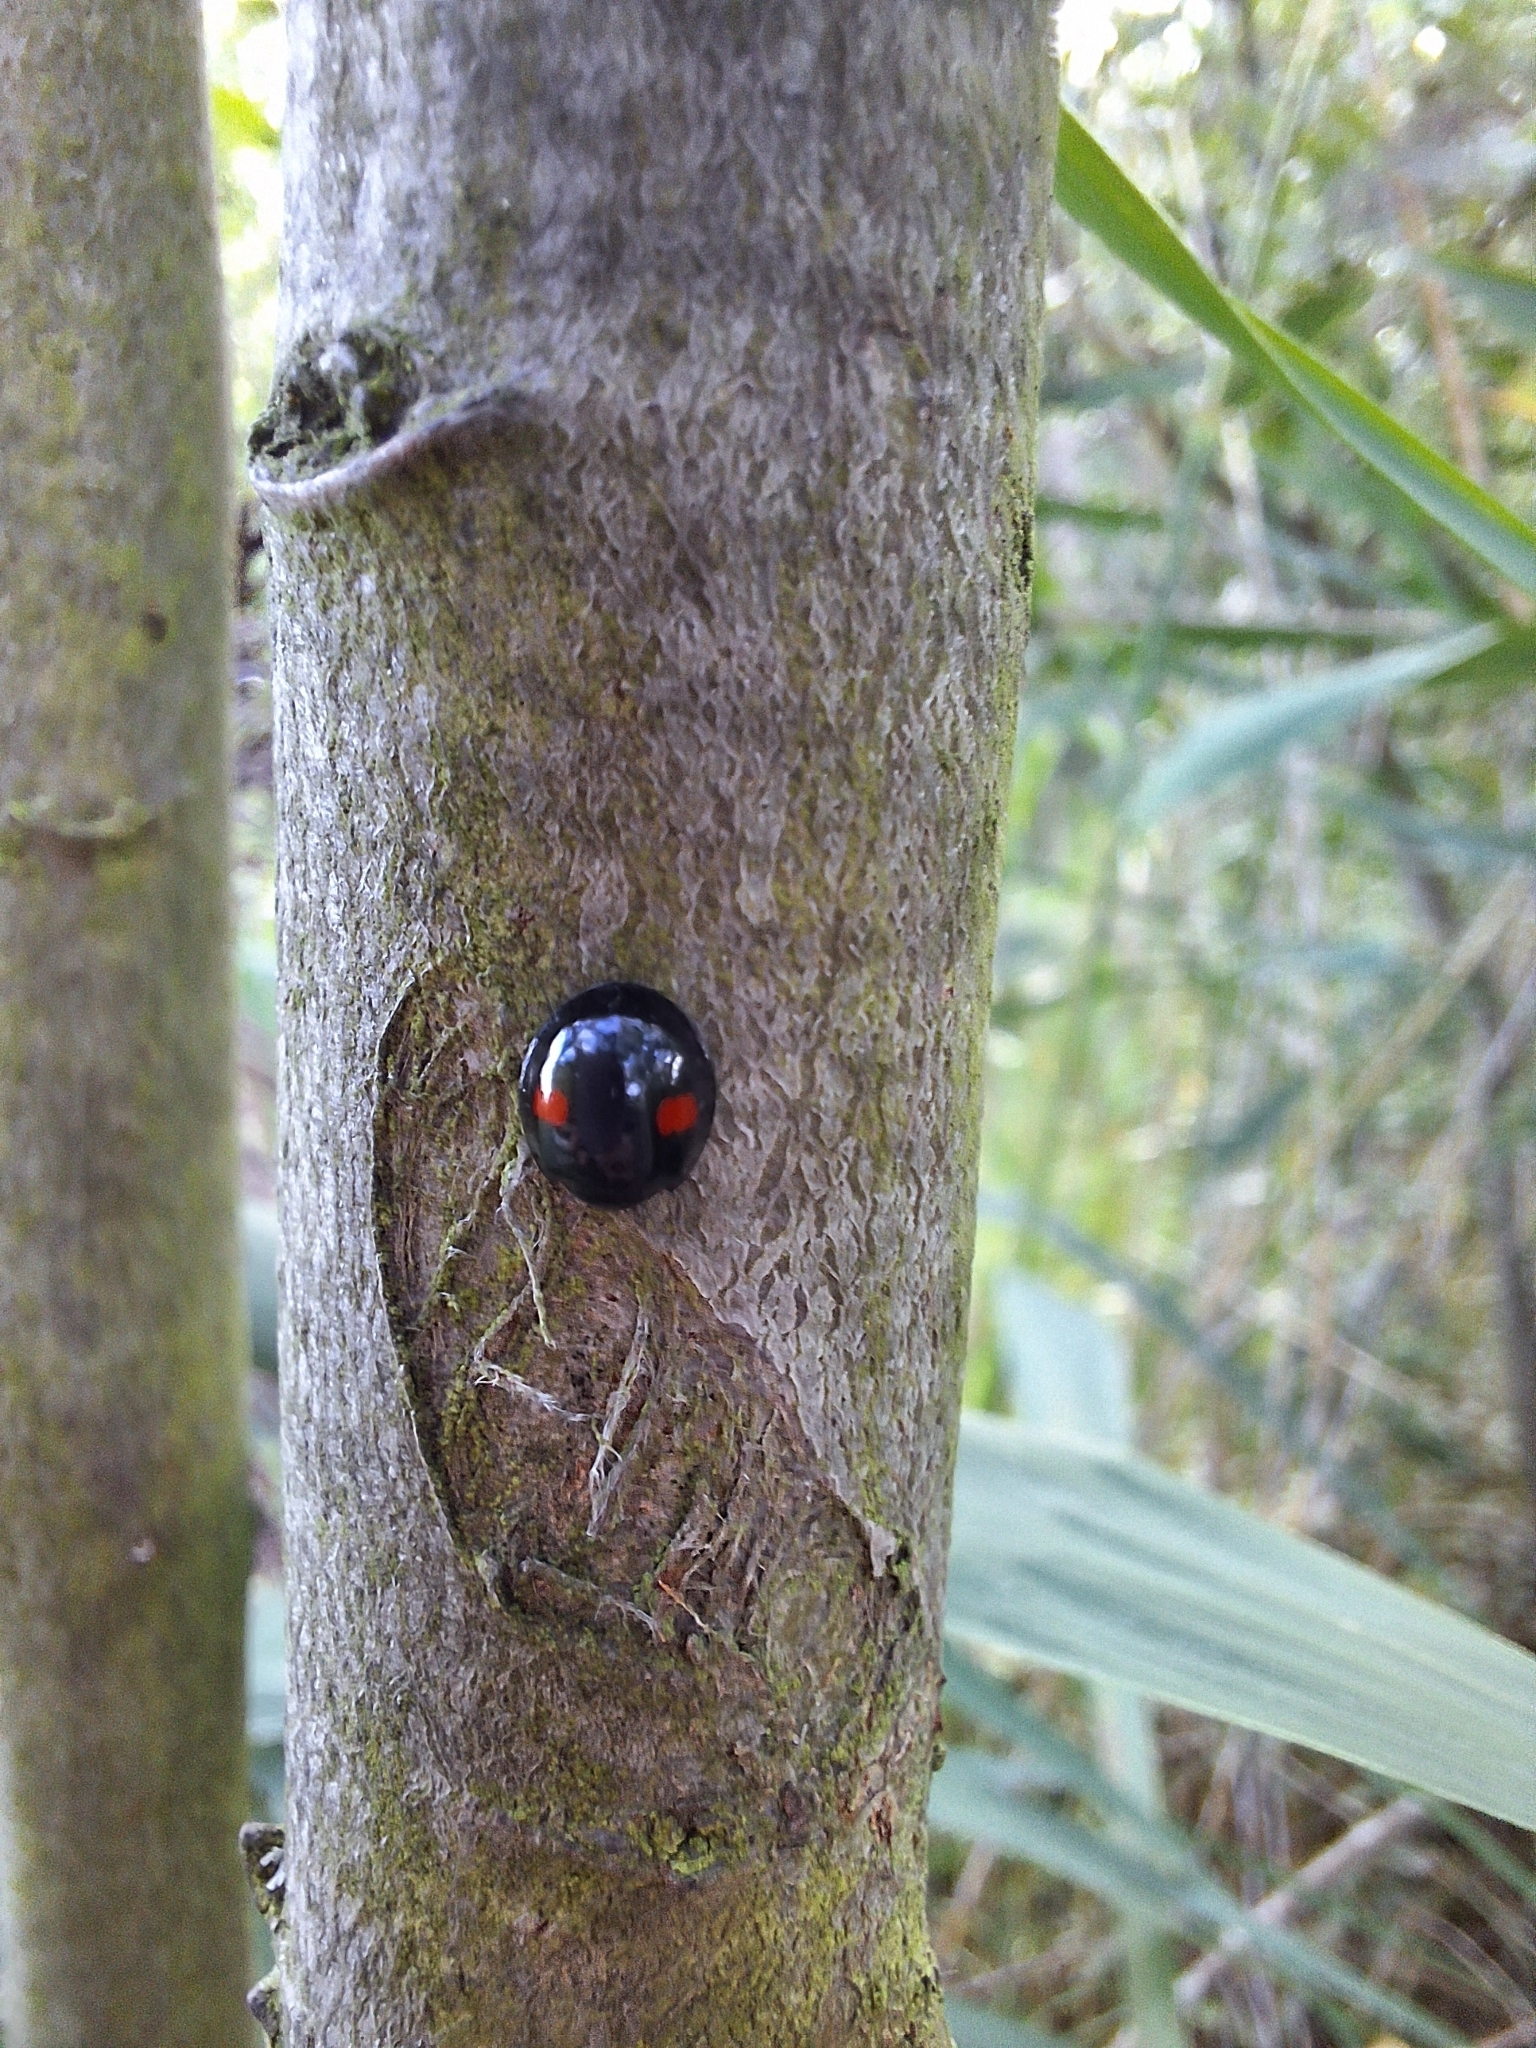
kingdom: Animalia
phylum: Arthropoda
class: Insecta
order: Coleoptera
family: Coccinellidae
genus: Chilocorus
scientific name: Chilocorus renipustulatus
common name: Kidney-spot ladybird
